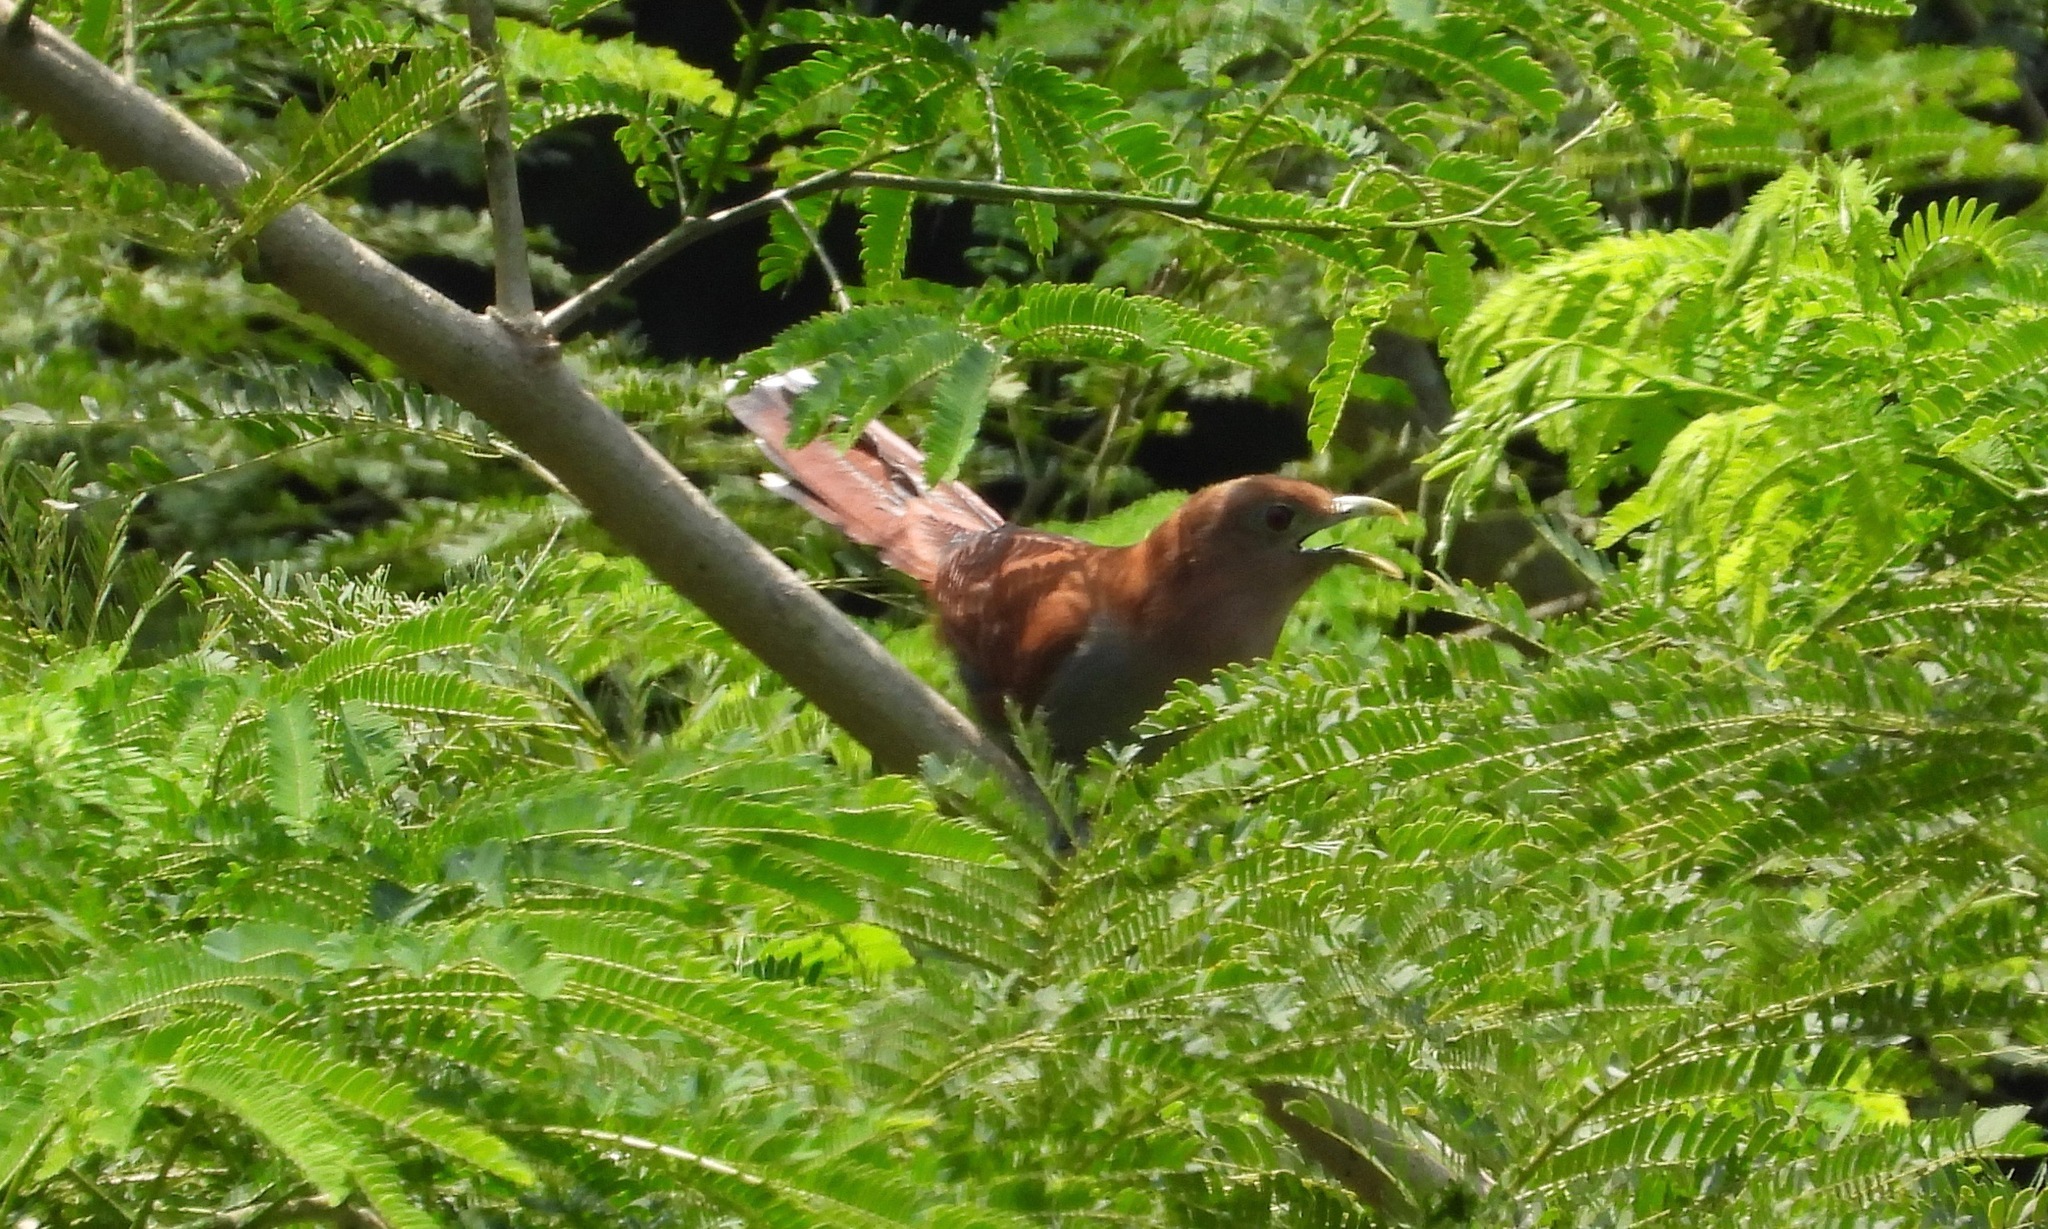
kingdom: Animalia
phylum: Chordata
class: Aves
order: Cuculiformes
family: Cuculidae
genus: Piaya
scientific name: Piaya cayana
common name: Squirrel cuckoo
